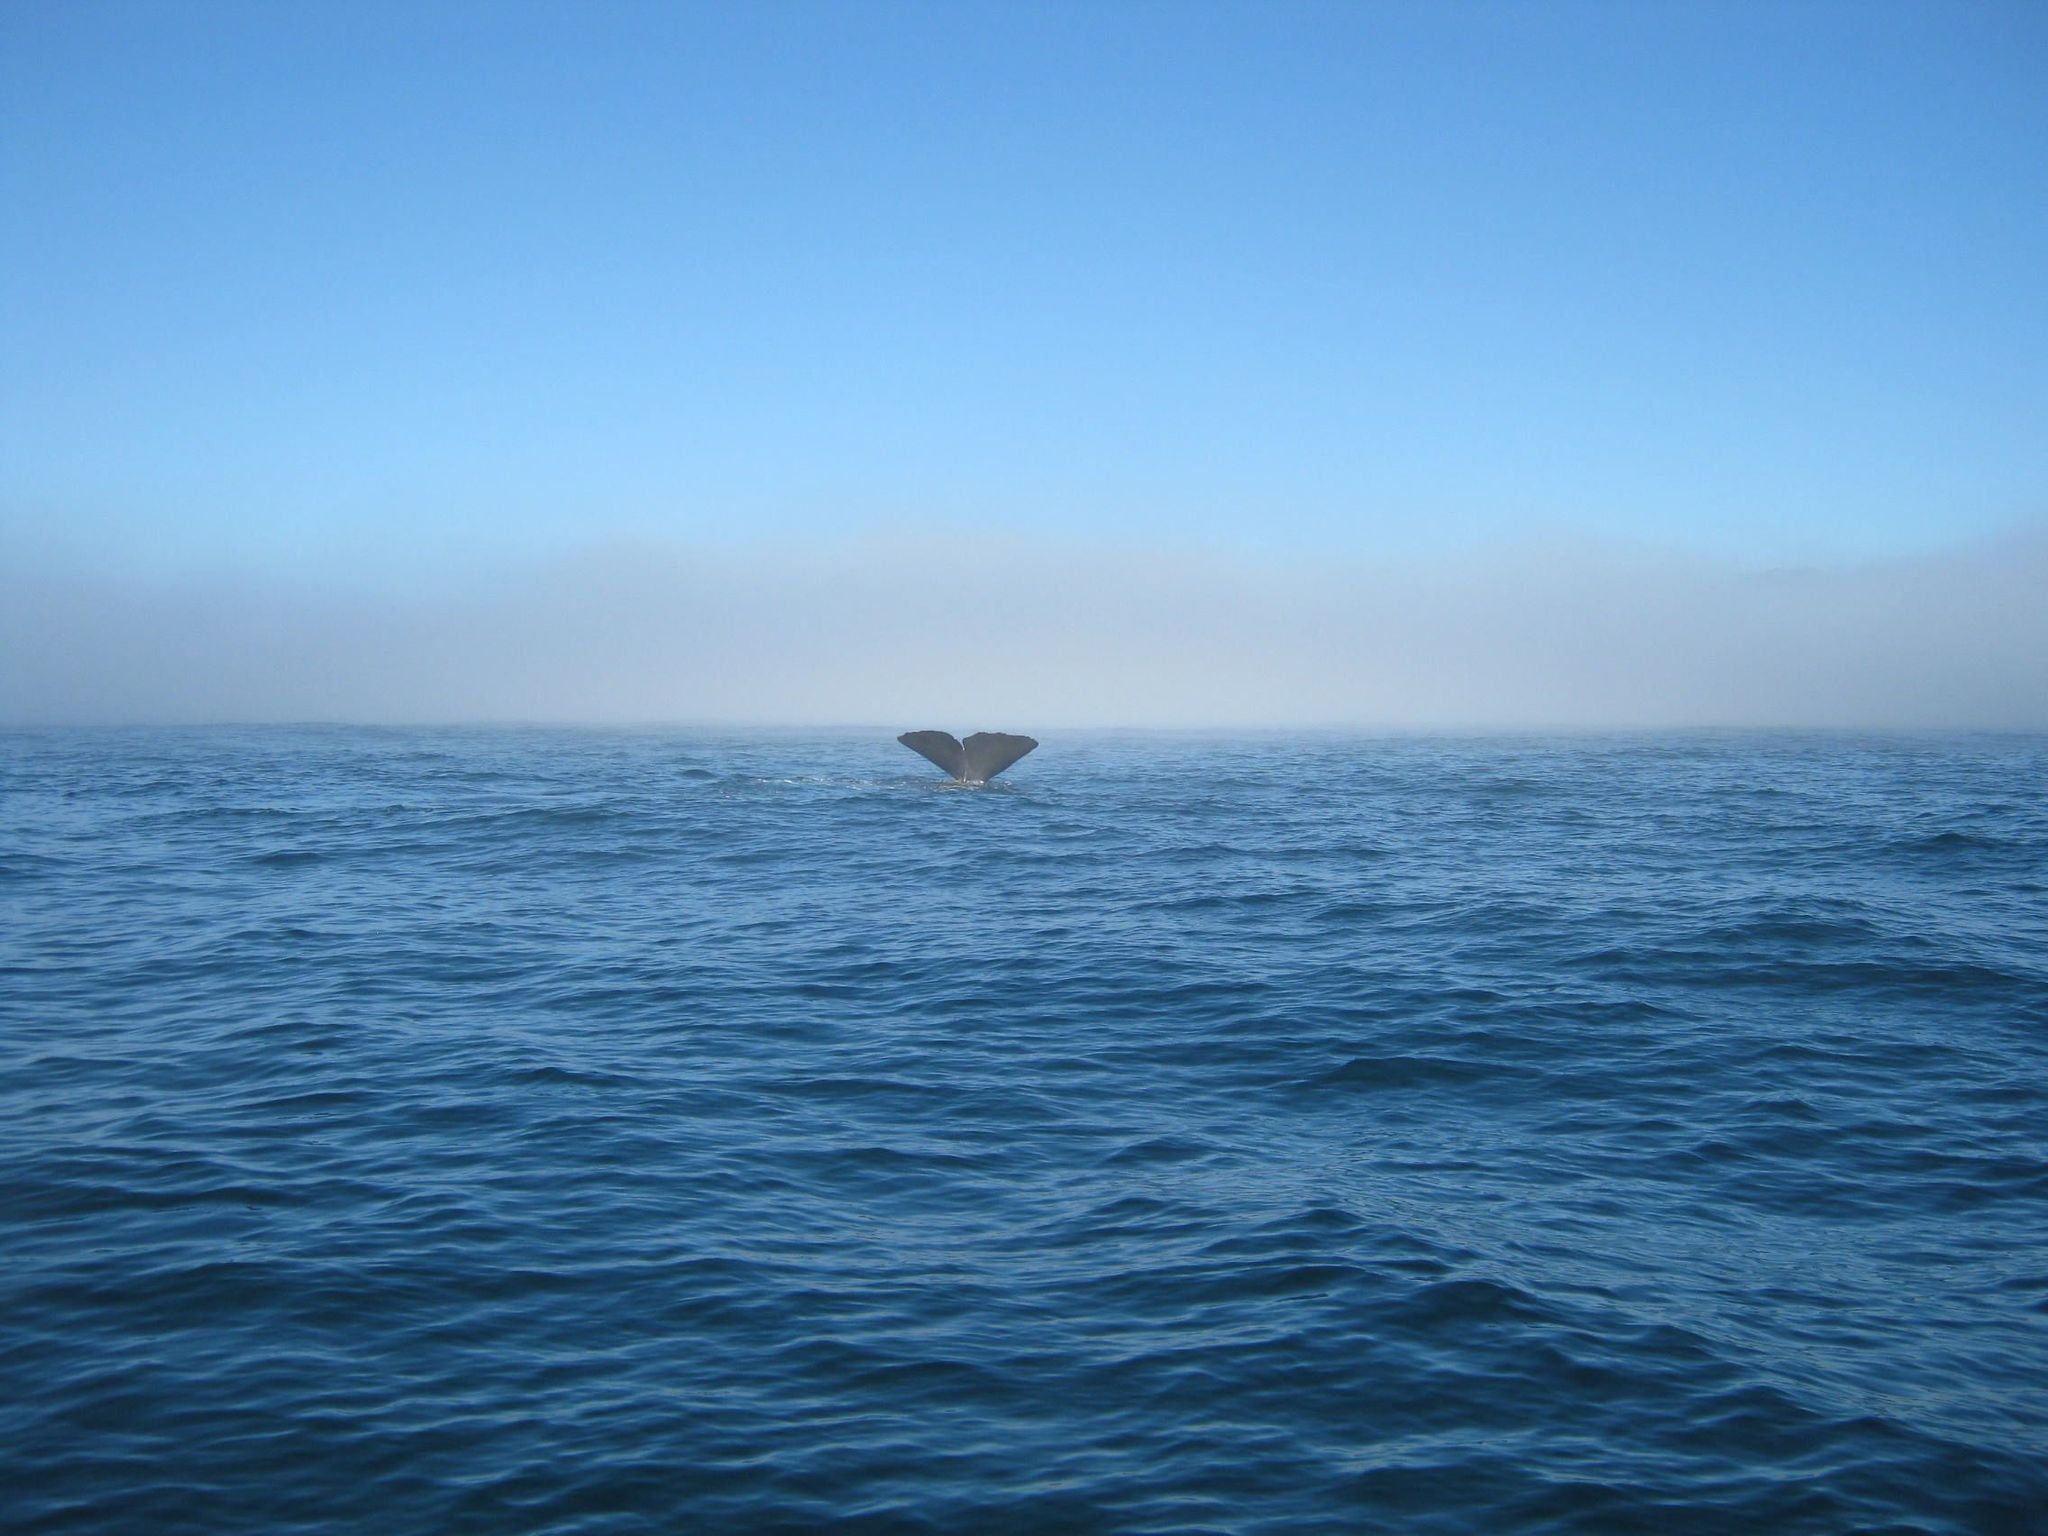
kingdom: Animalia
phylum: Chordata
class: Mammalia
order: Cetacea
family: Physeteridae
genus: Physeter
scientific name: Physeter macrocephalus
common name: Sperm whale
